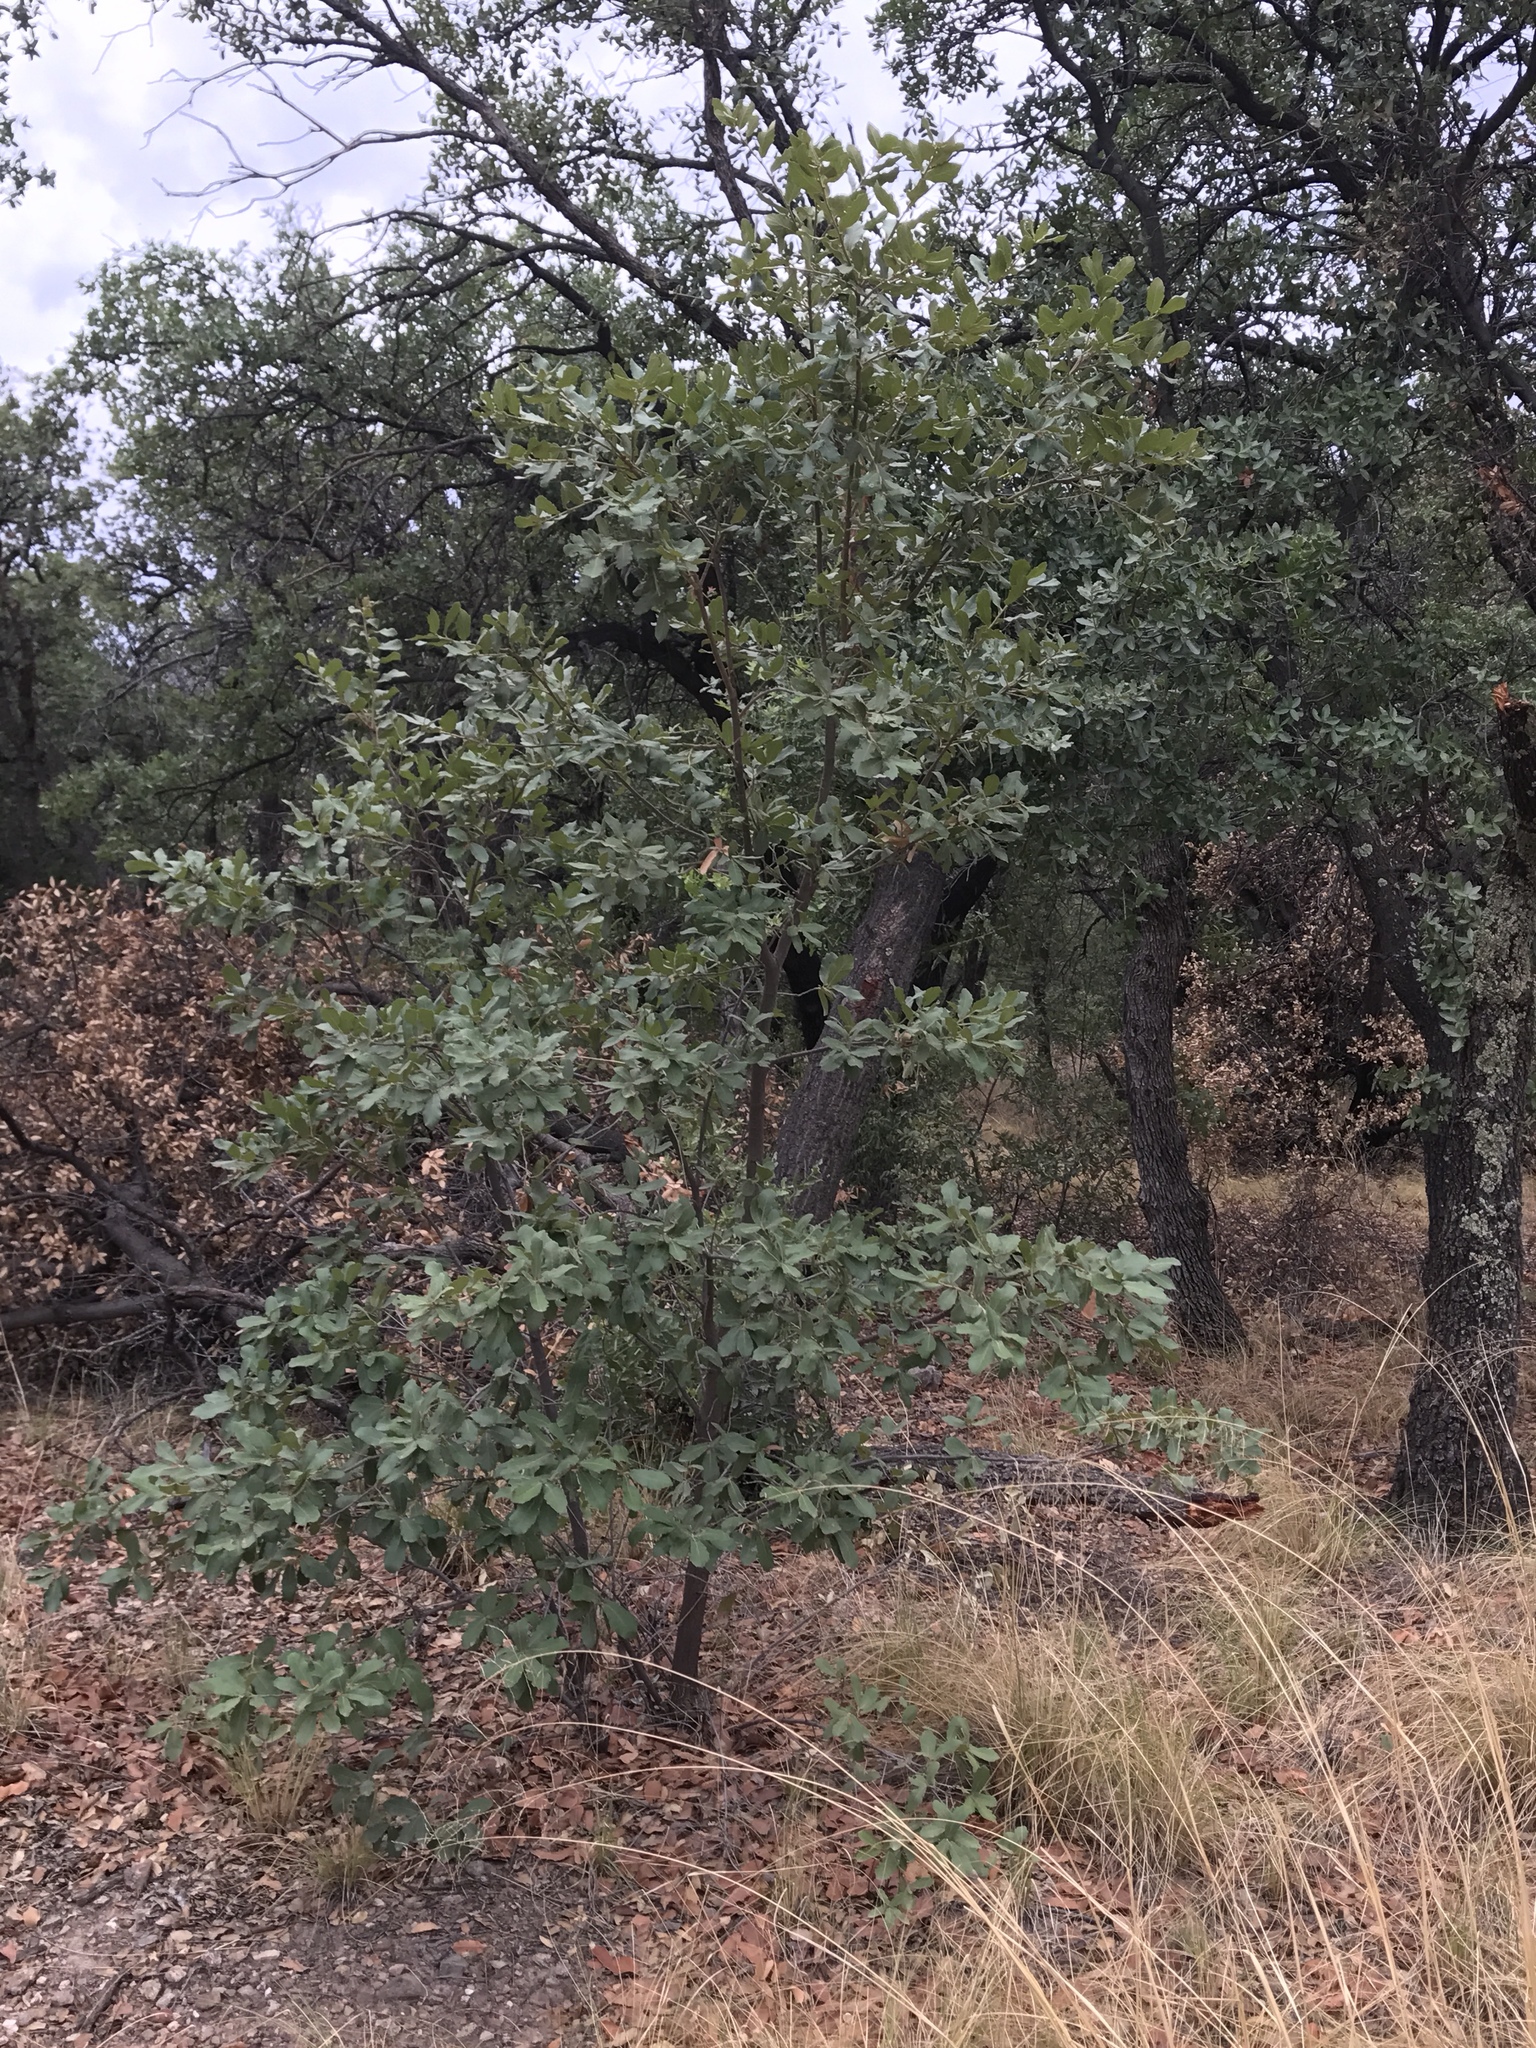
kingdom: Plantae
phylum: Tracheophyta
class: Magnoliopsida
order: Fagales
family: Fagaceae
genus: Quercus
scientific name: Quercus rugosa
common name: Netleaf oak
